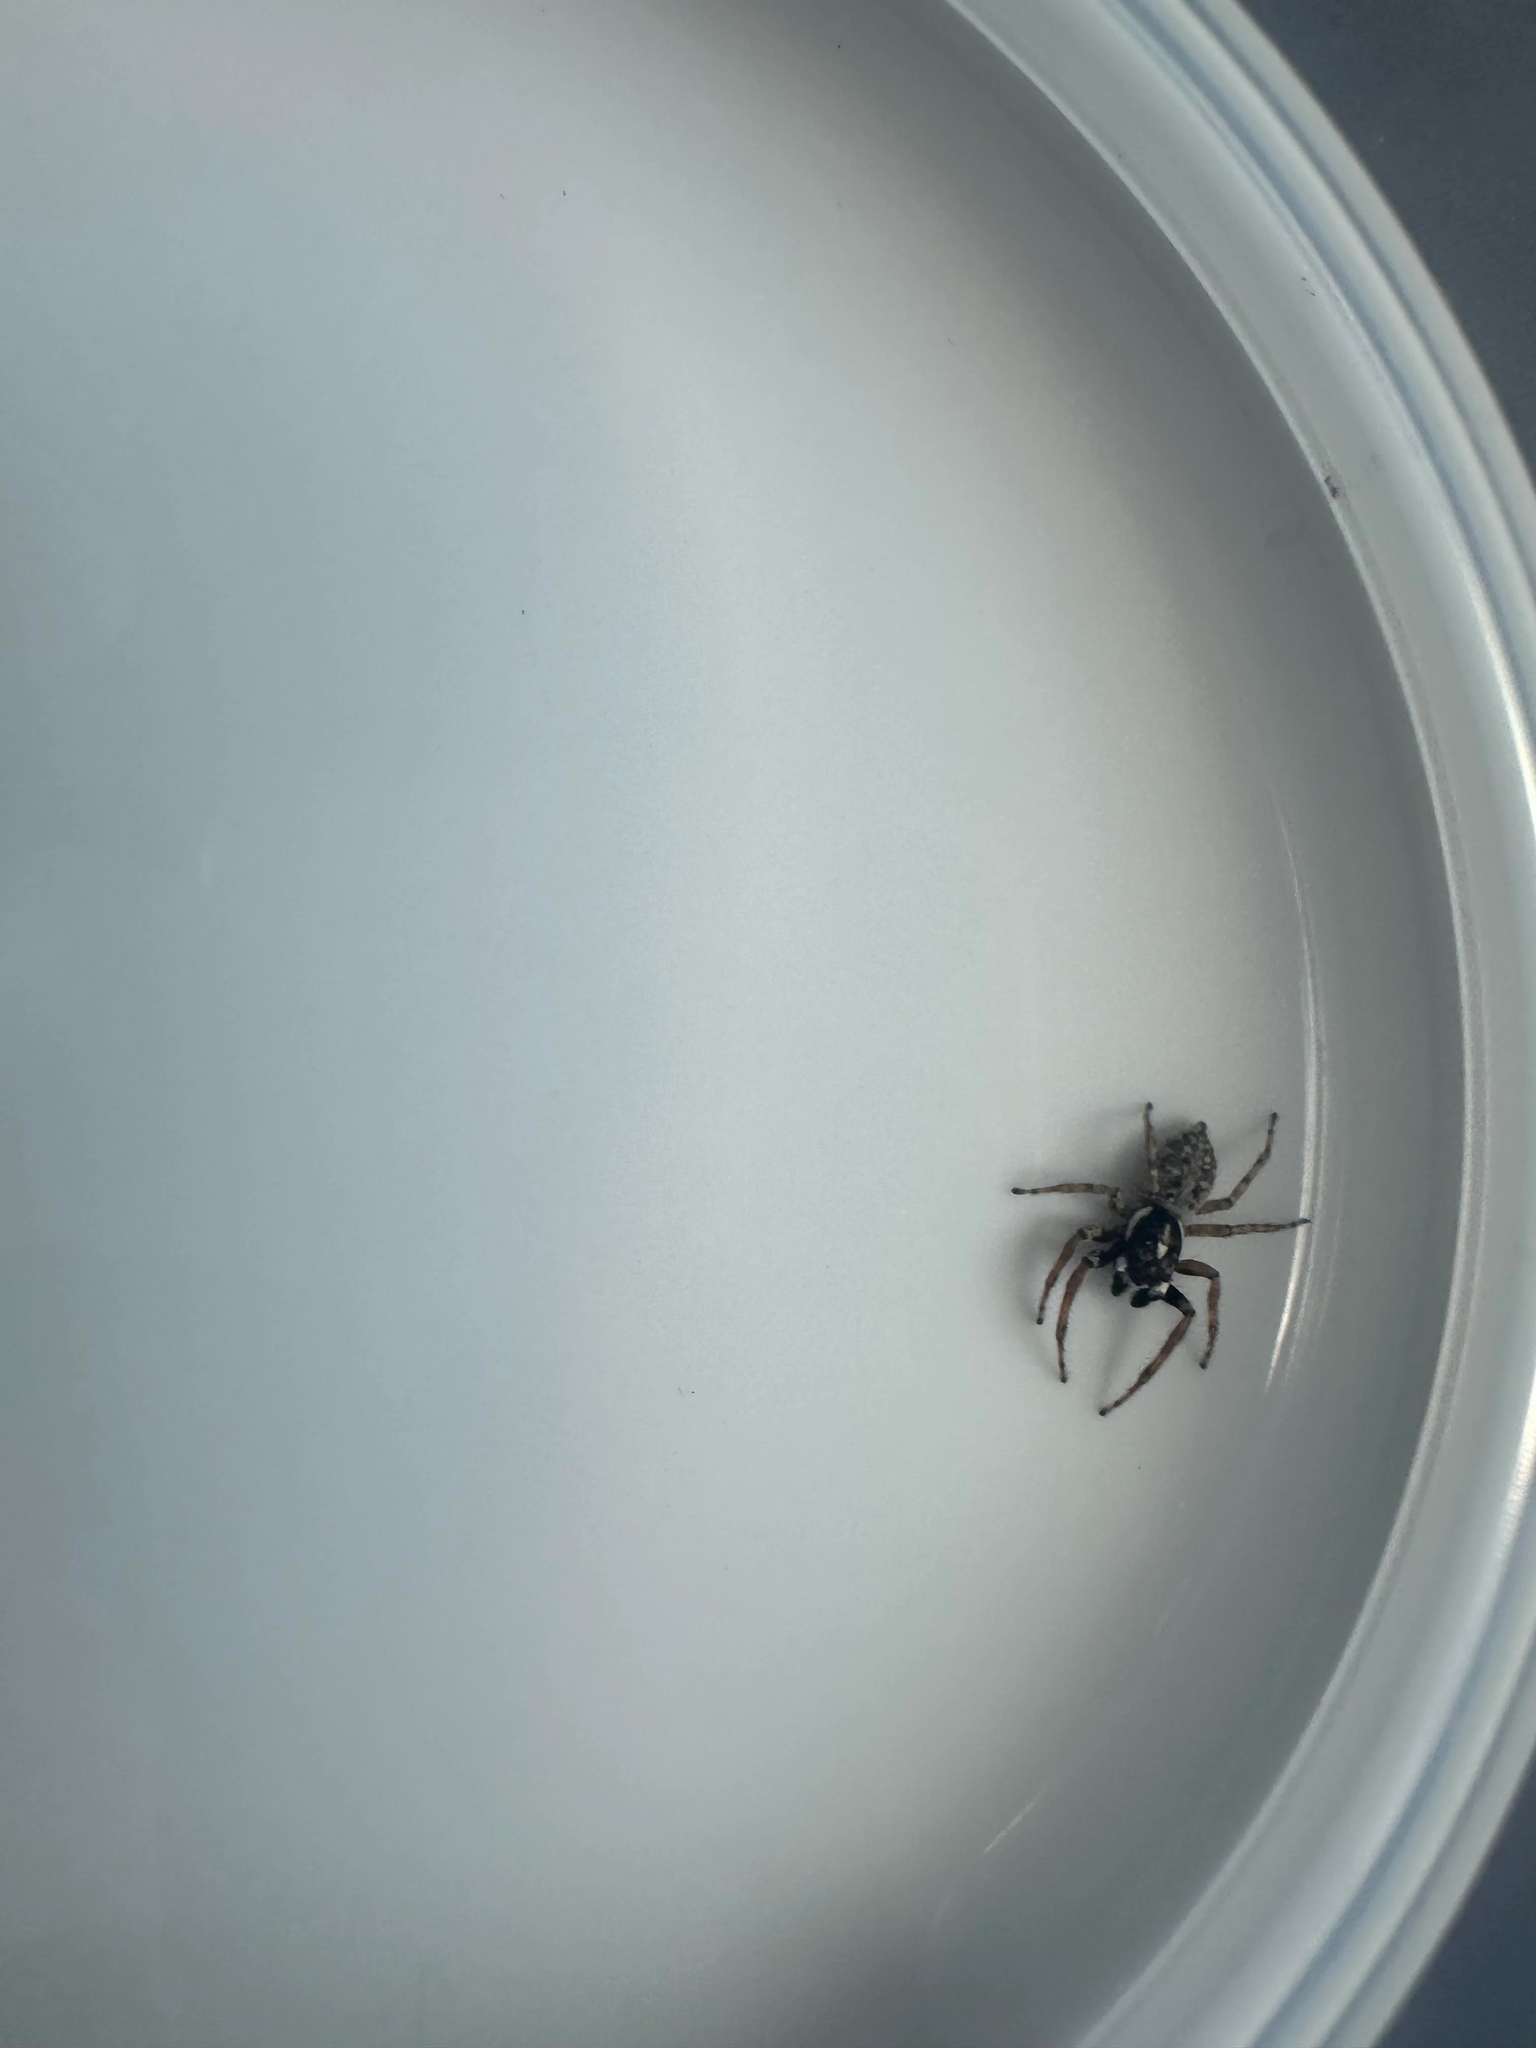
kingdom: Animalia
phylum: Arthropoda
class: Arachnida
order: Araneae
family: Salticidae
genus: Menemerus
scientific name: Menemerus semilimbatus
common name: Jumping spider
